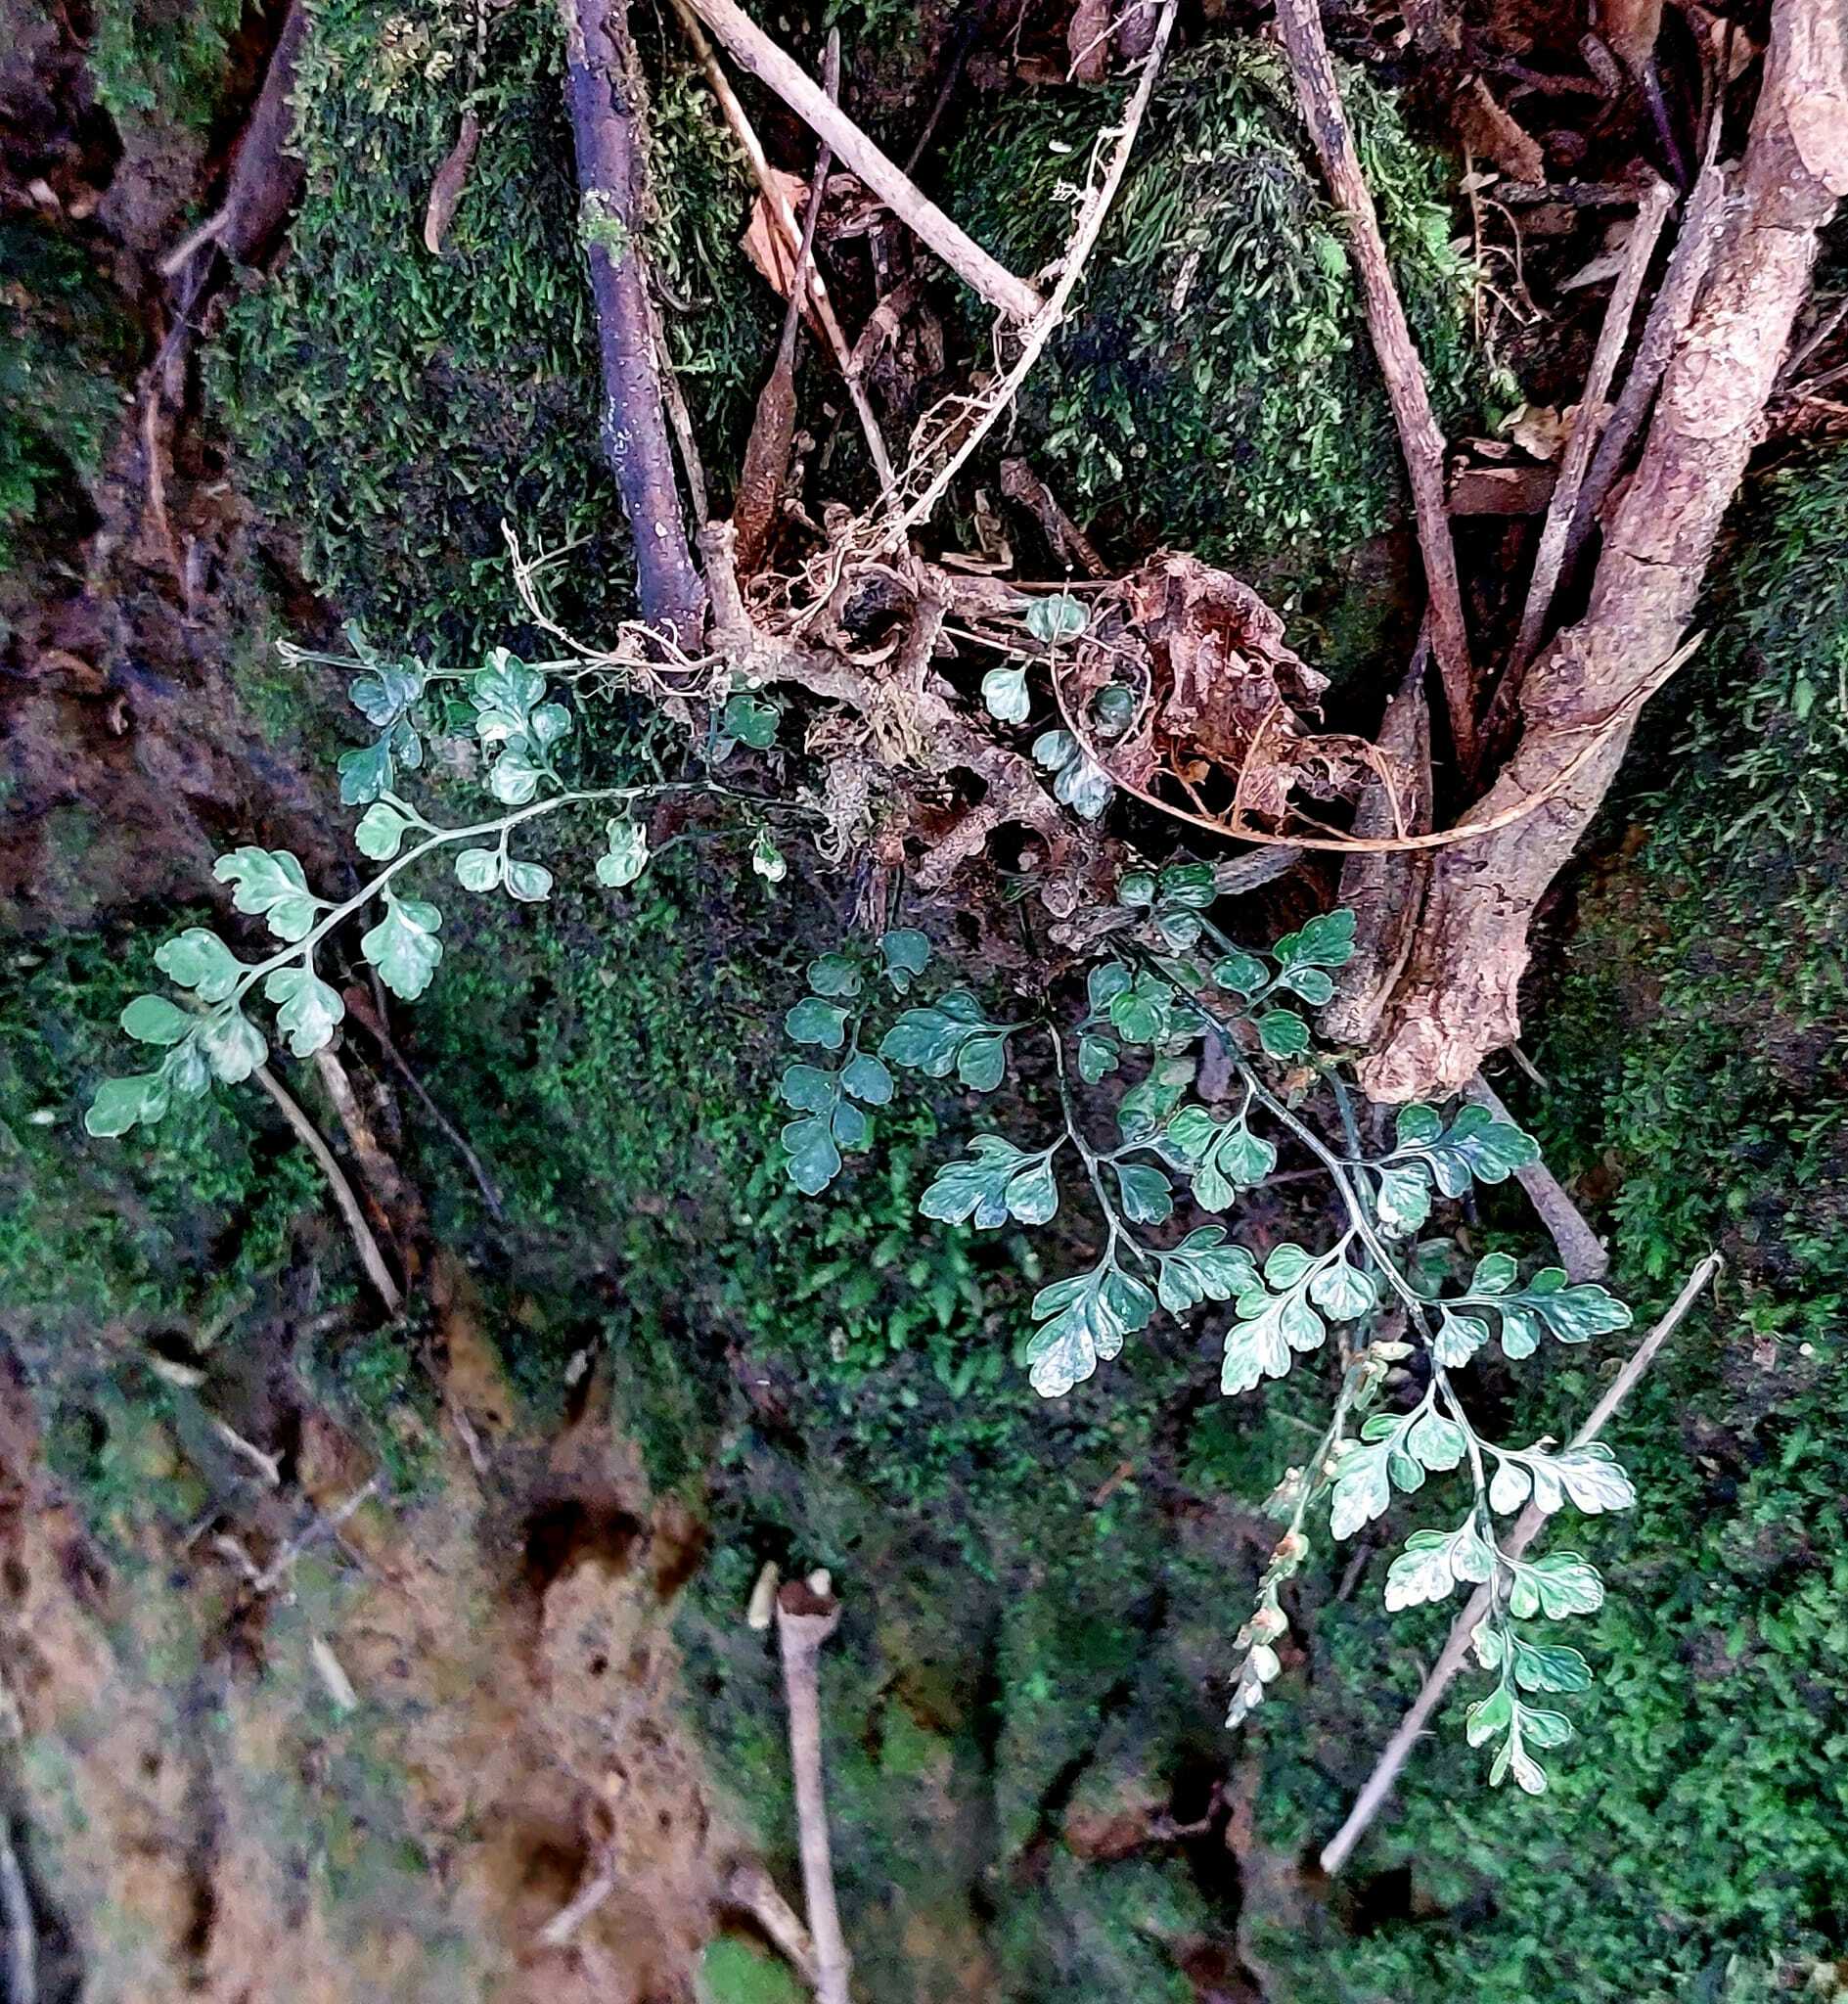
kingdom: Plantae
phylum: Tracheophyta
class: Polypodiopsida
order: Polypodiales
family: Aspleniaceae
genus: Asplenium
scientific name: Asplenium hookerianum
